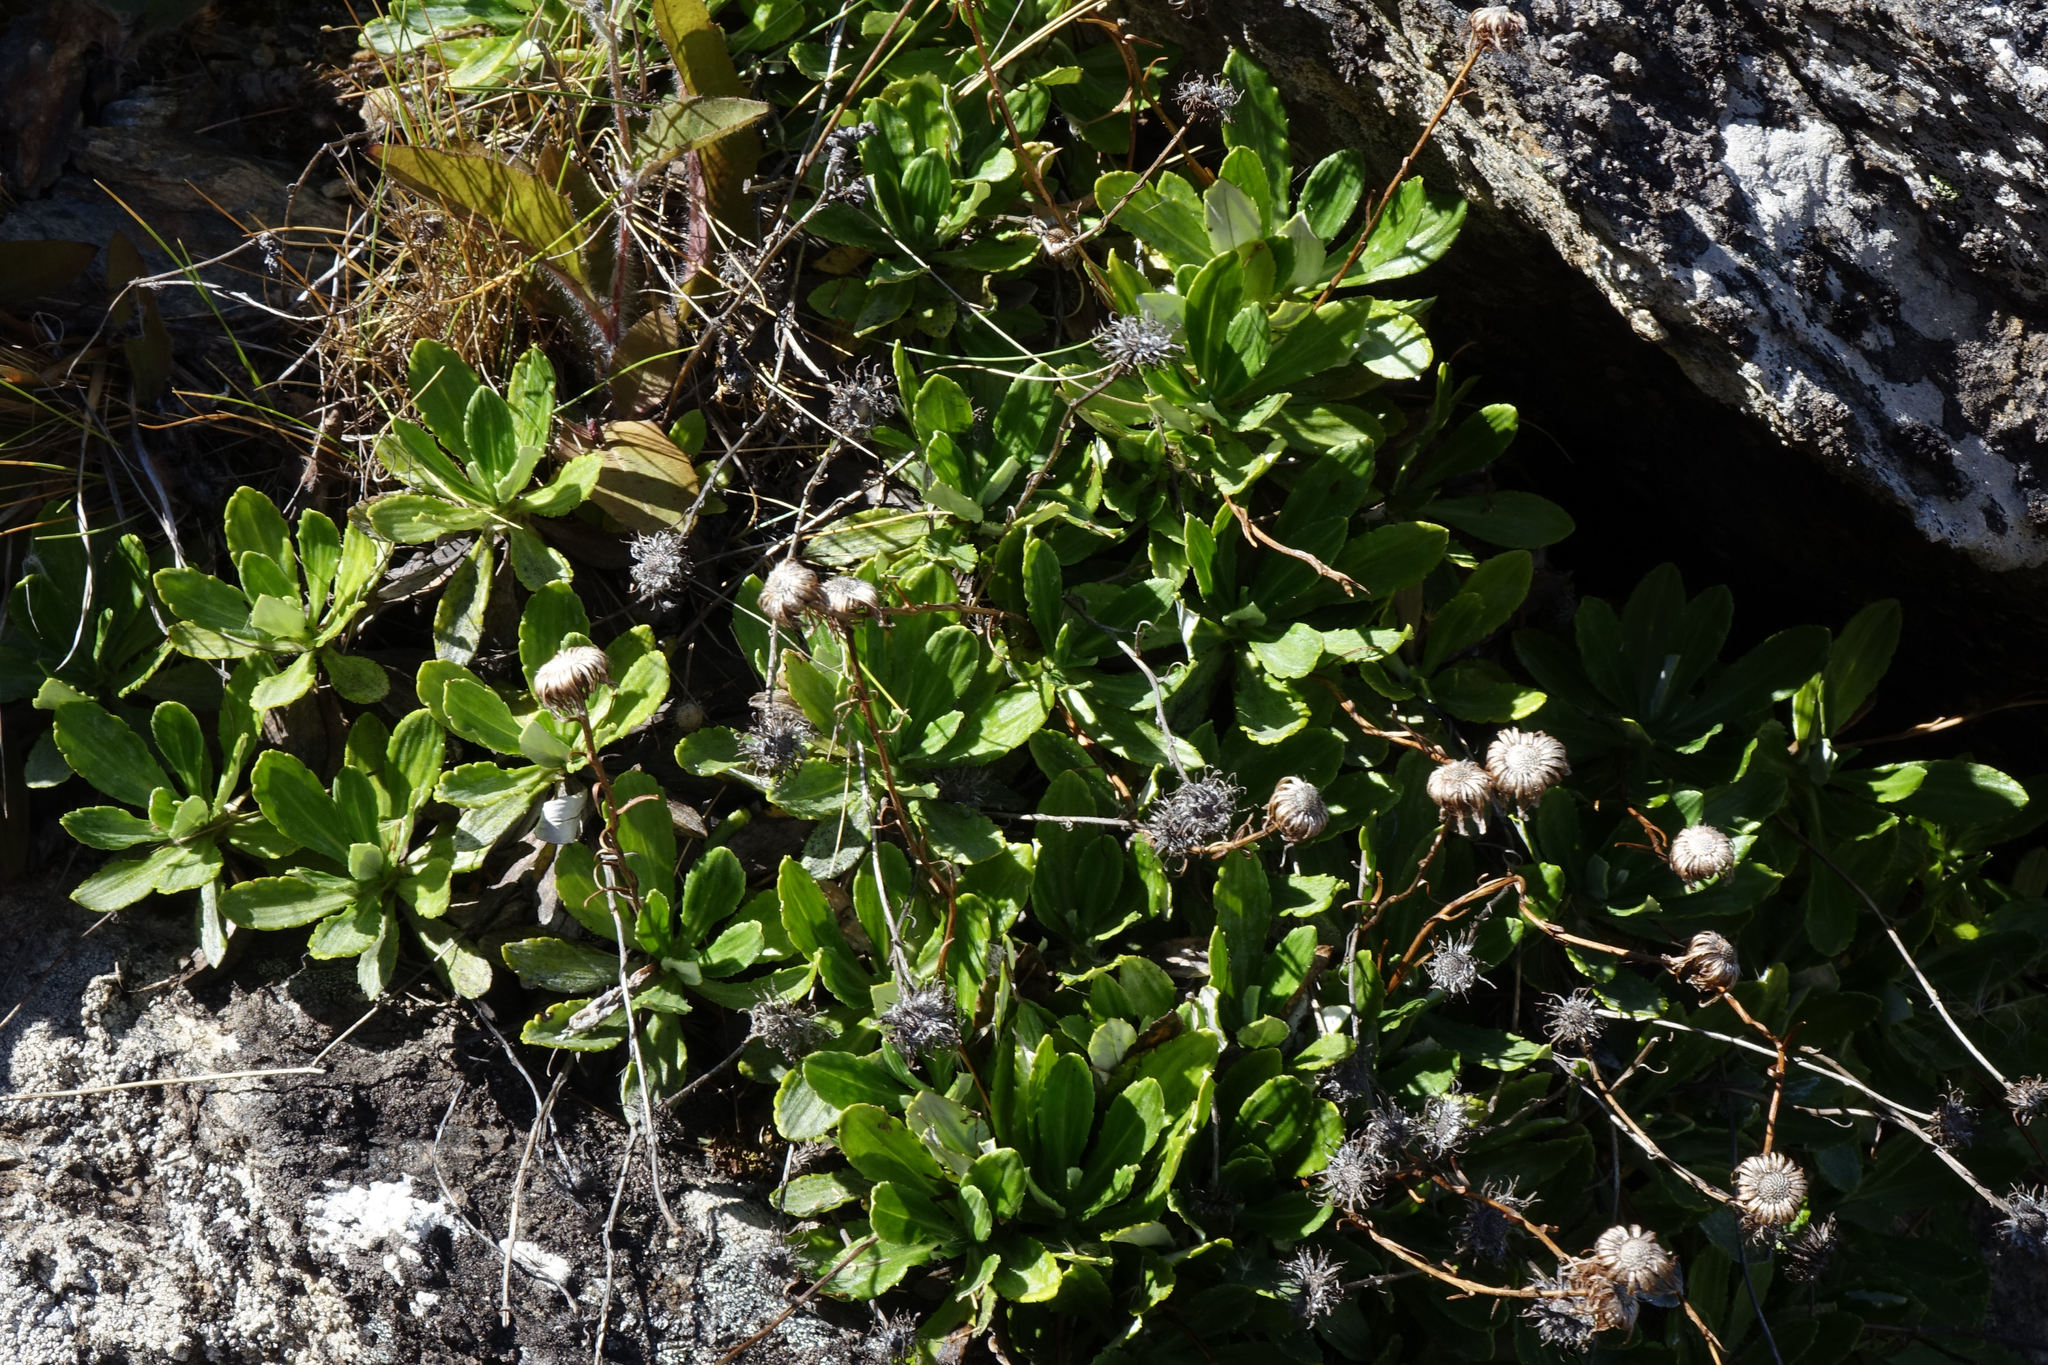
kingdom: Plantae
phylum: Tracheophyta
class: Magnoliopsida
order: Asterales
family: Asteraceae
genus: Celmisia
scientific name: Celmisia densiflora
